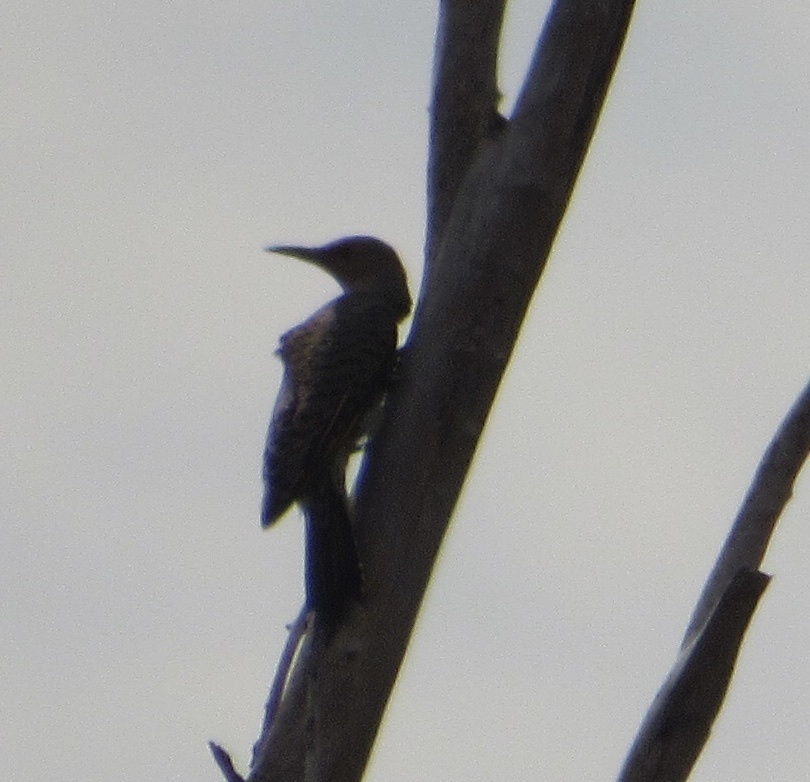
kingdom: Animalia
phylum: Chordata
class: Aves
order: Piciformes
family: Picidae
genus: Colaptes
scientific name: Colaptes auratus
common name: Northern flicker
